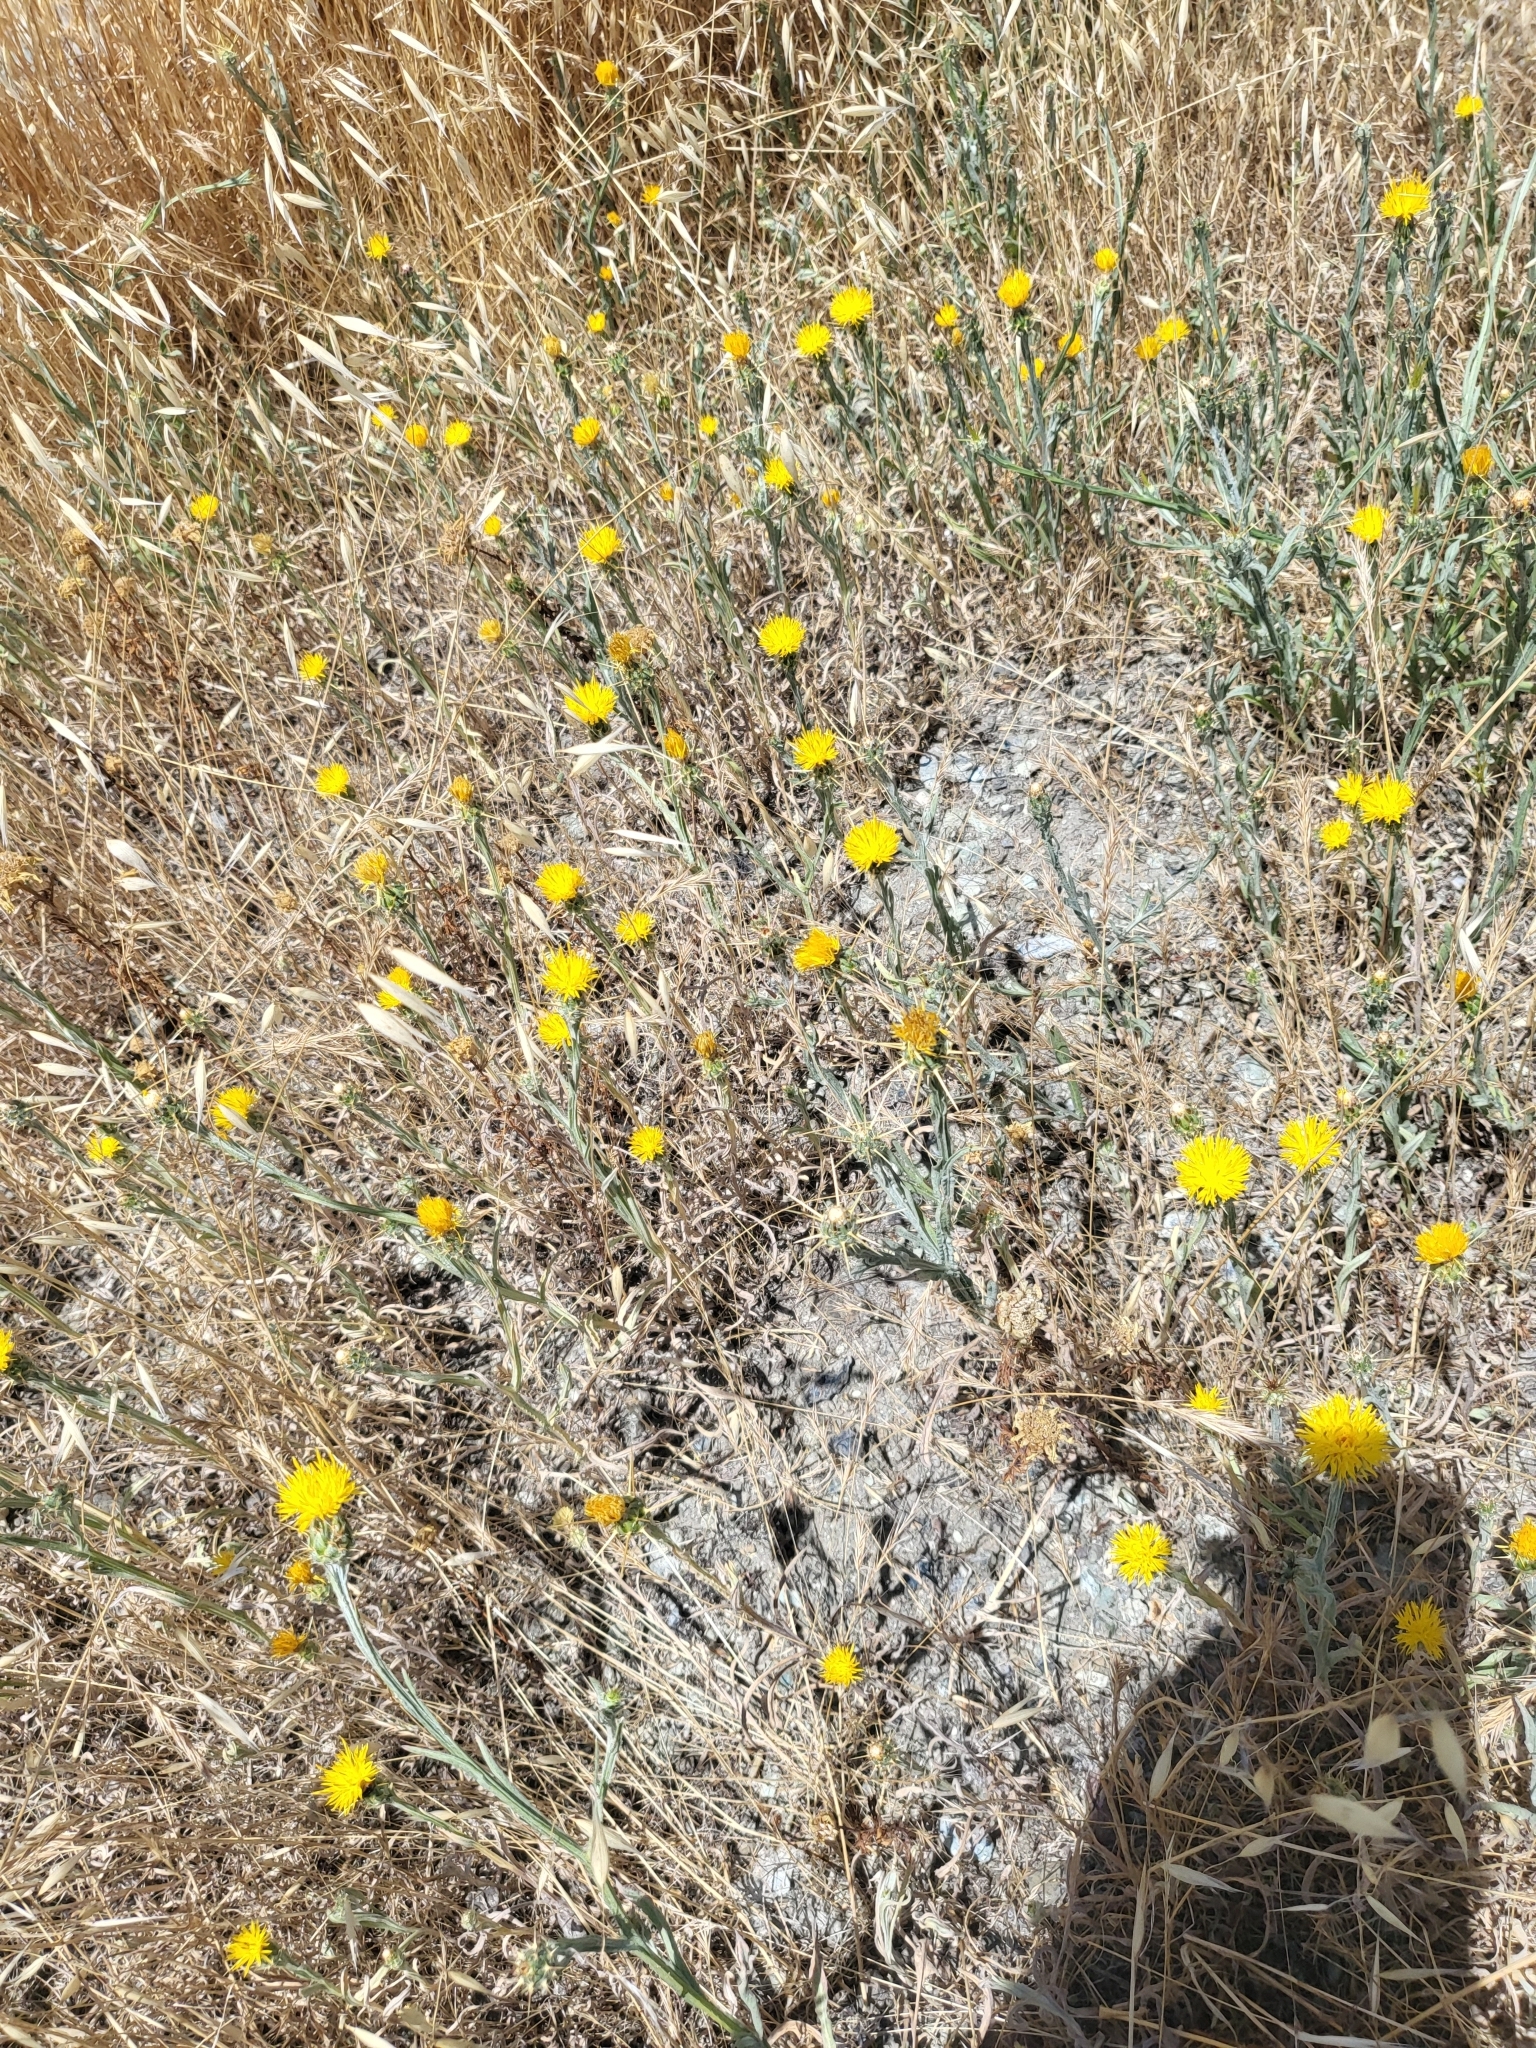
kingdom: Plantae
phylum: Tracheophyta
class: Magnoliopsida
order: Asterales
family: Asteraceae
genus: Centaurea
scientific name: Centaurea solstitialis
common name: Yellow star-thistle
